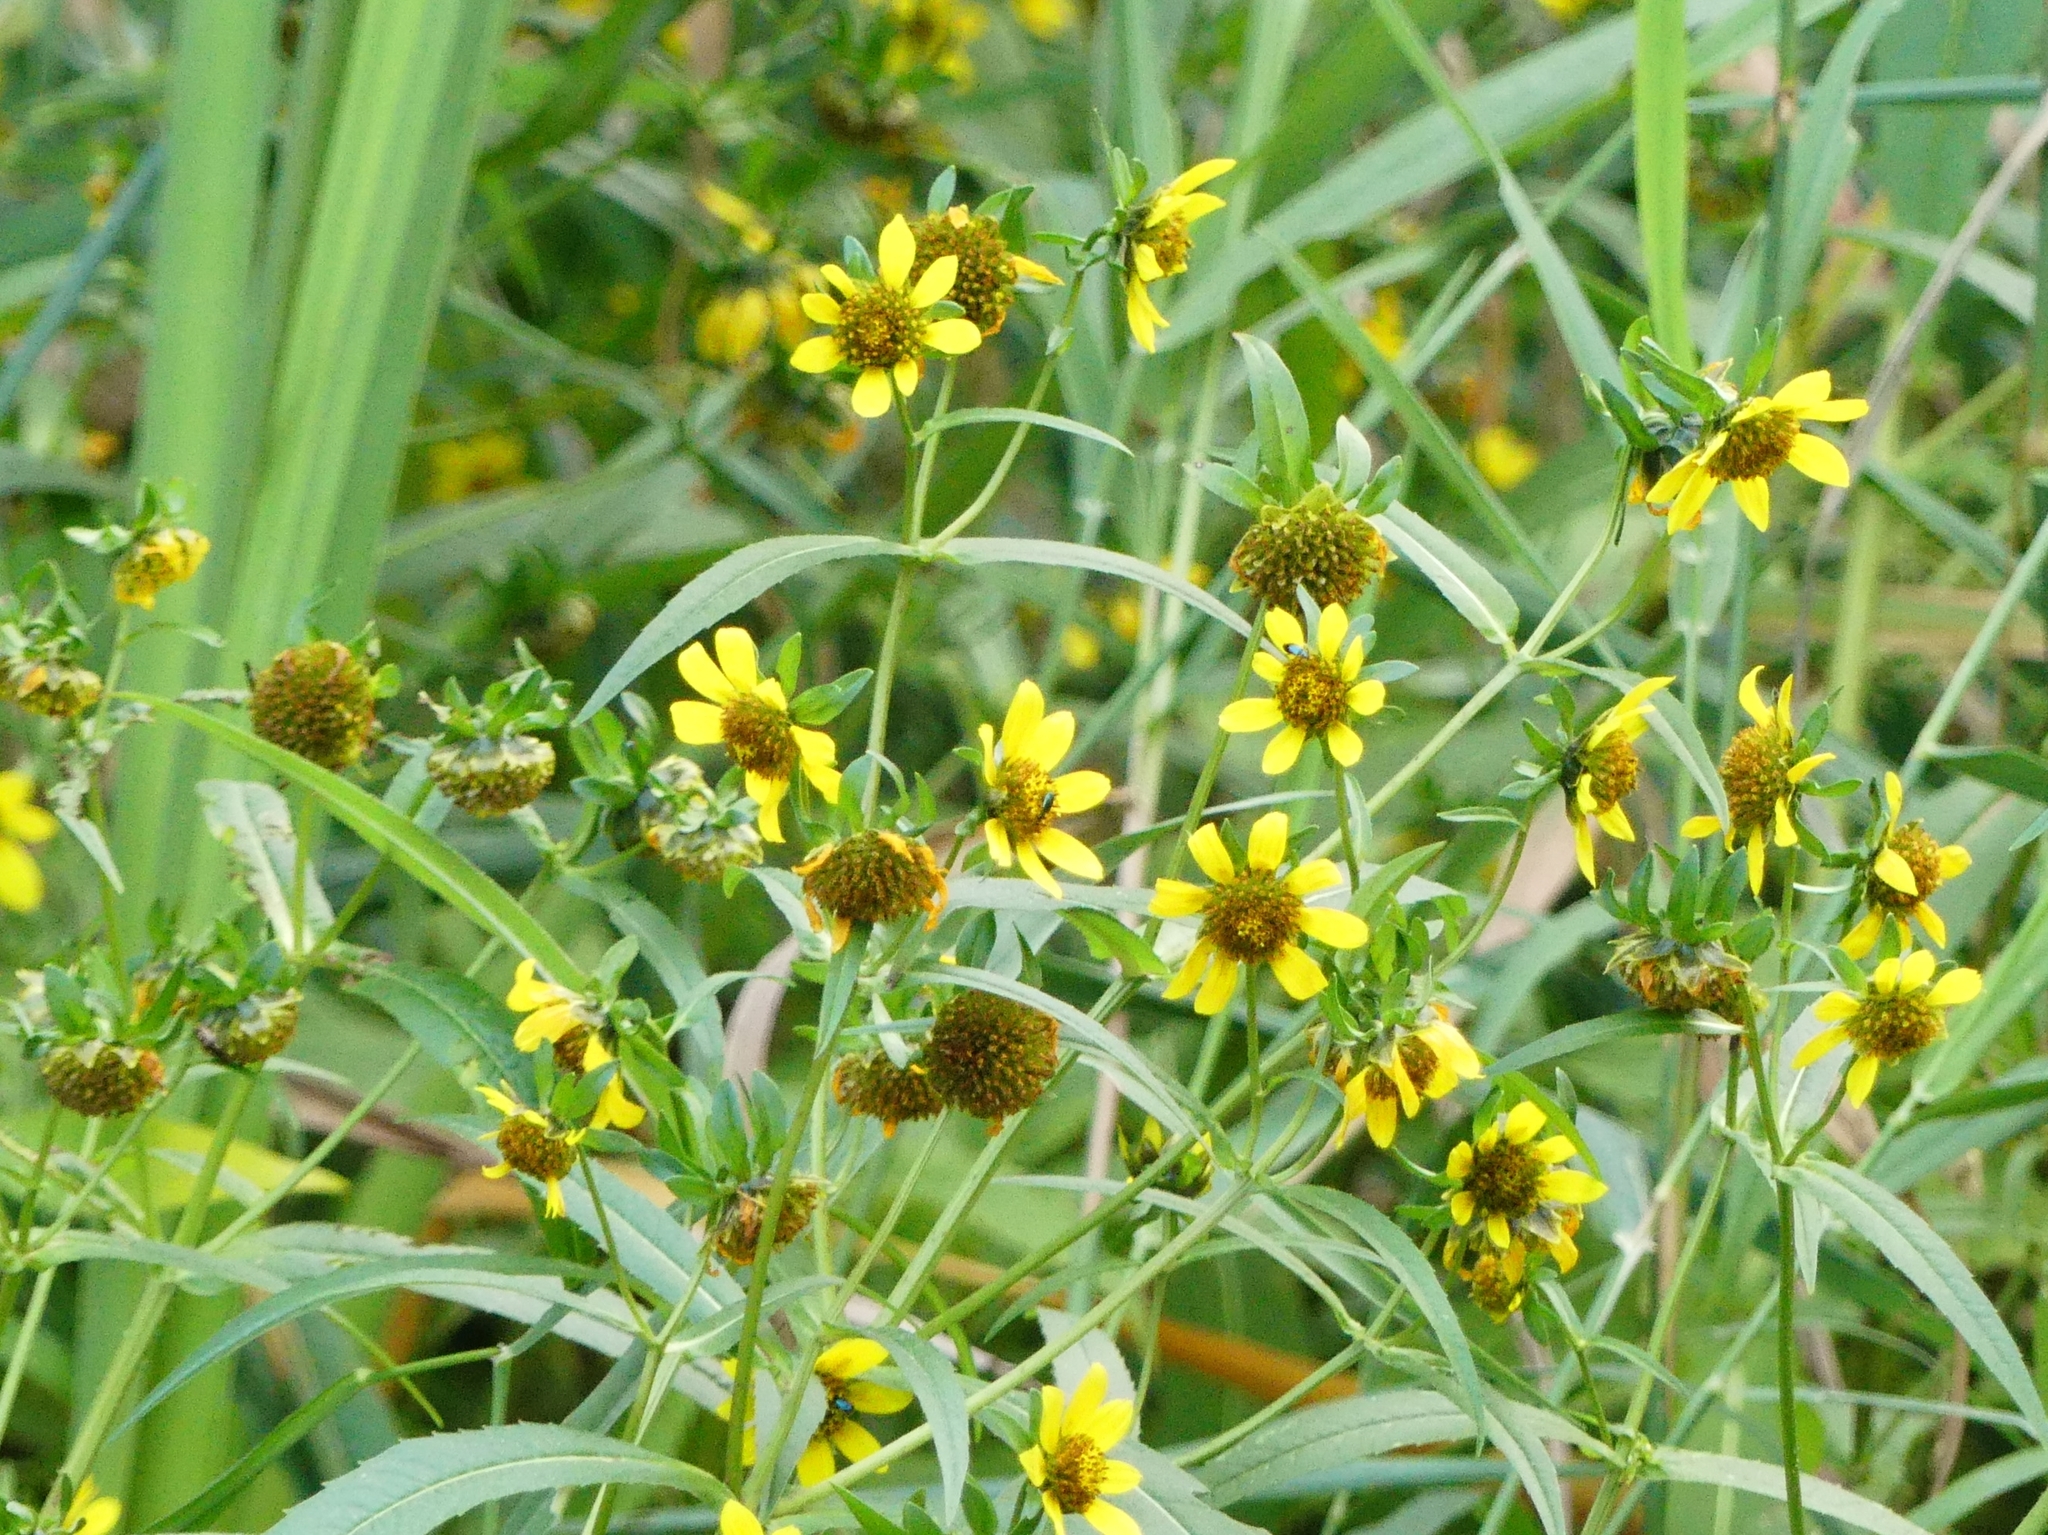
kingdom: Plantae
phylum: Tracheophyta
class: Magnoliopsida
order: Asterales
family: Asteraceae
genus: Bidens
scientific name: Bidens cernua
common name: Nodding bur-marigold
